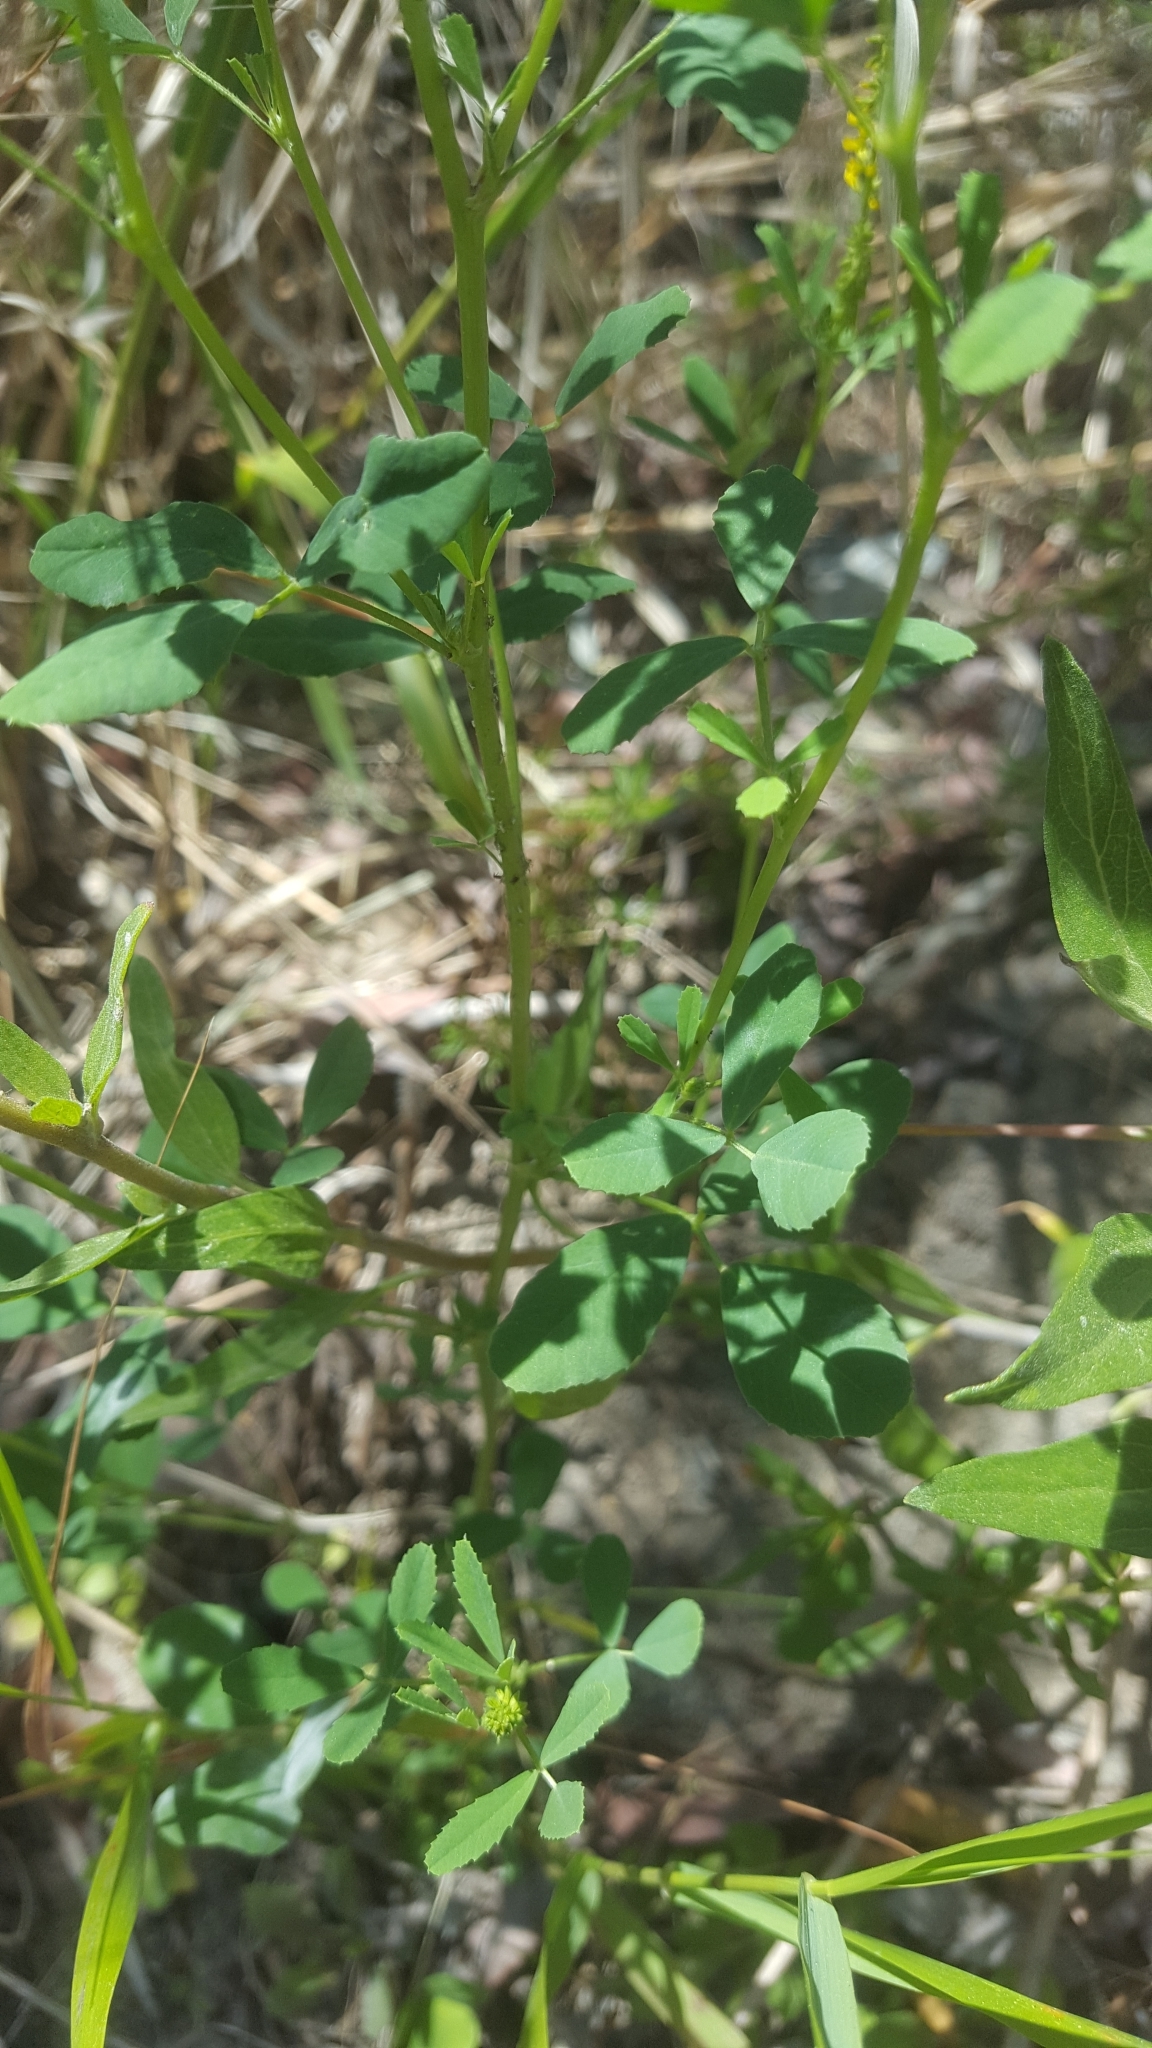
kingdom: Plantae
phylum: Tracheophyta
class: Magnoliopsida
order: Fabales
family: Fabaceae
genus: Melilotus
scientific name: Melilotus indicus
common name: Small melilot
